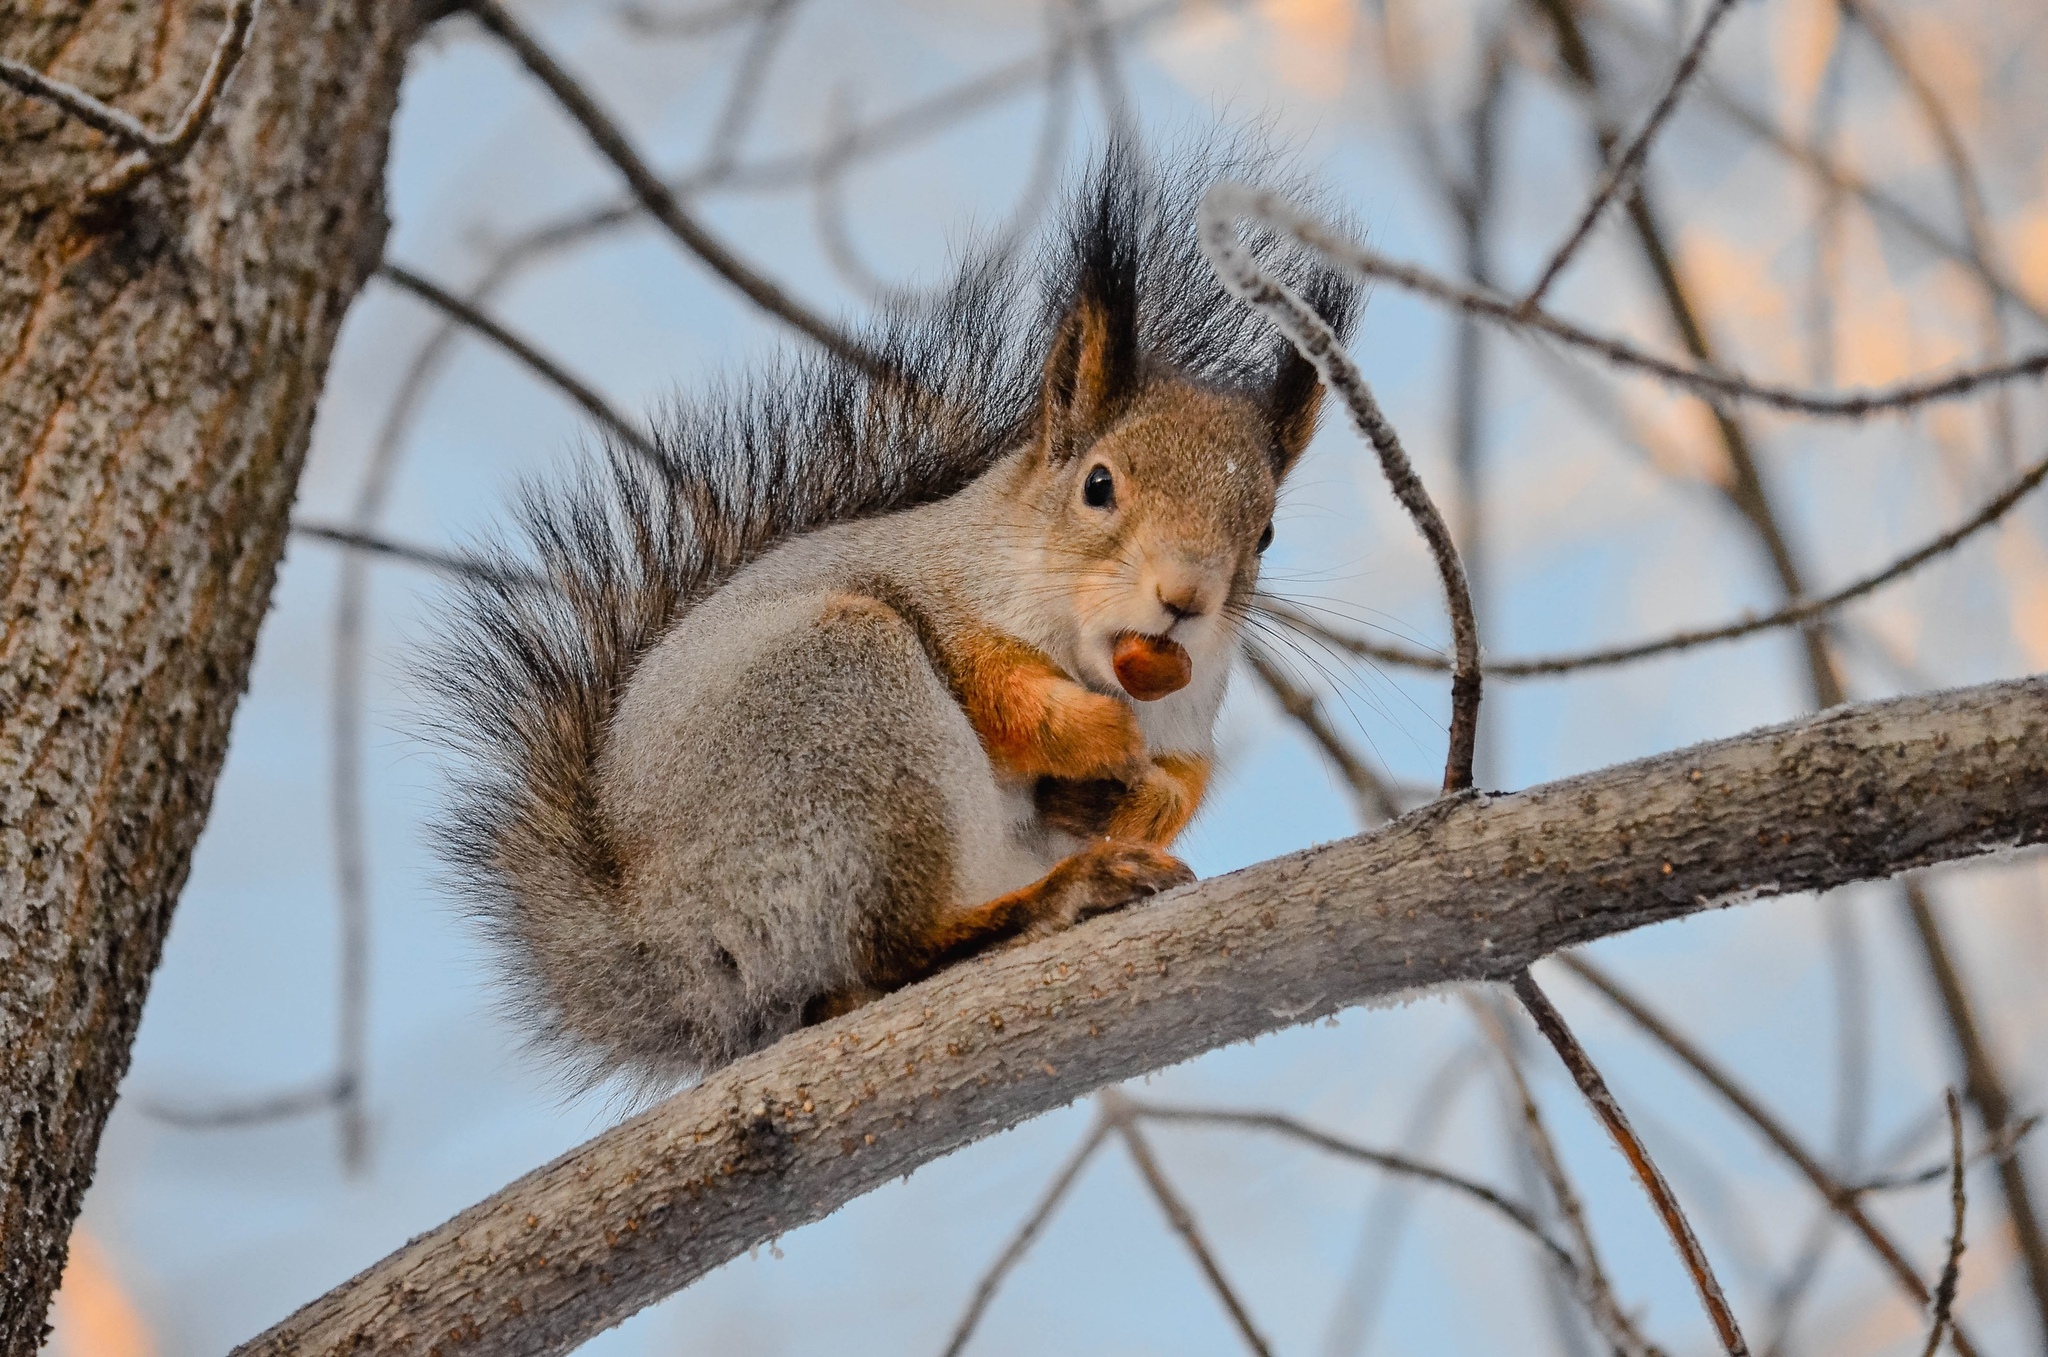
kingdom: Animalia
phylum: Chordata
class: Mammalia
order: Rodentia
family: Sciuridae
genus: Sciurus
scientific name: Sciurus vulgaris
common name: Eurasian red squirrel
